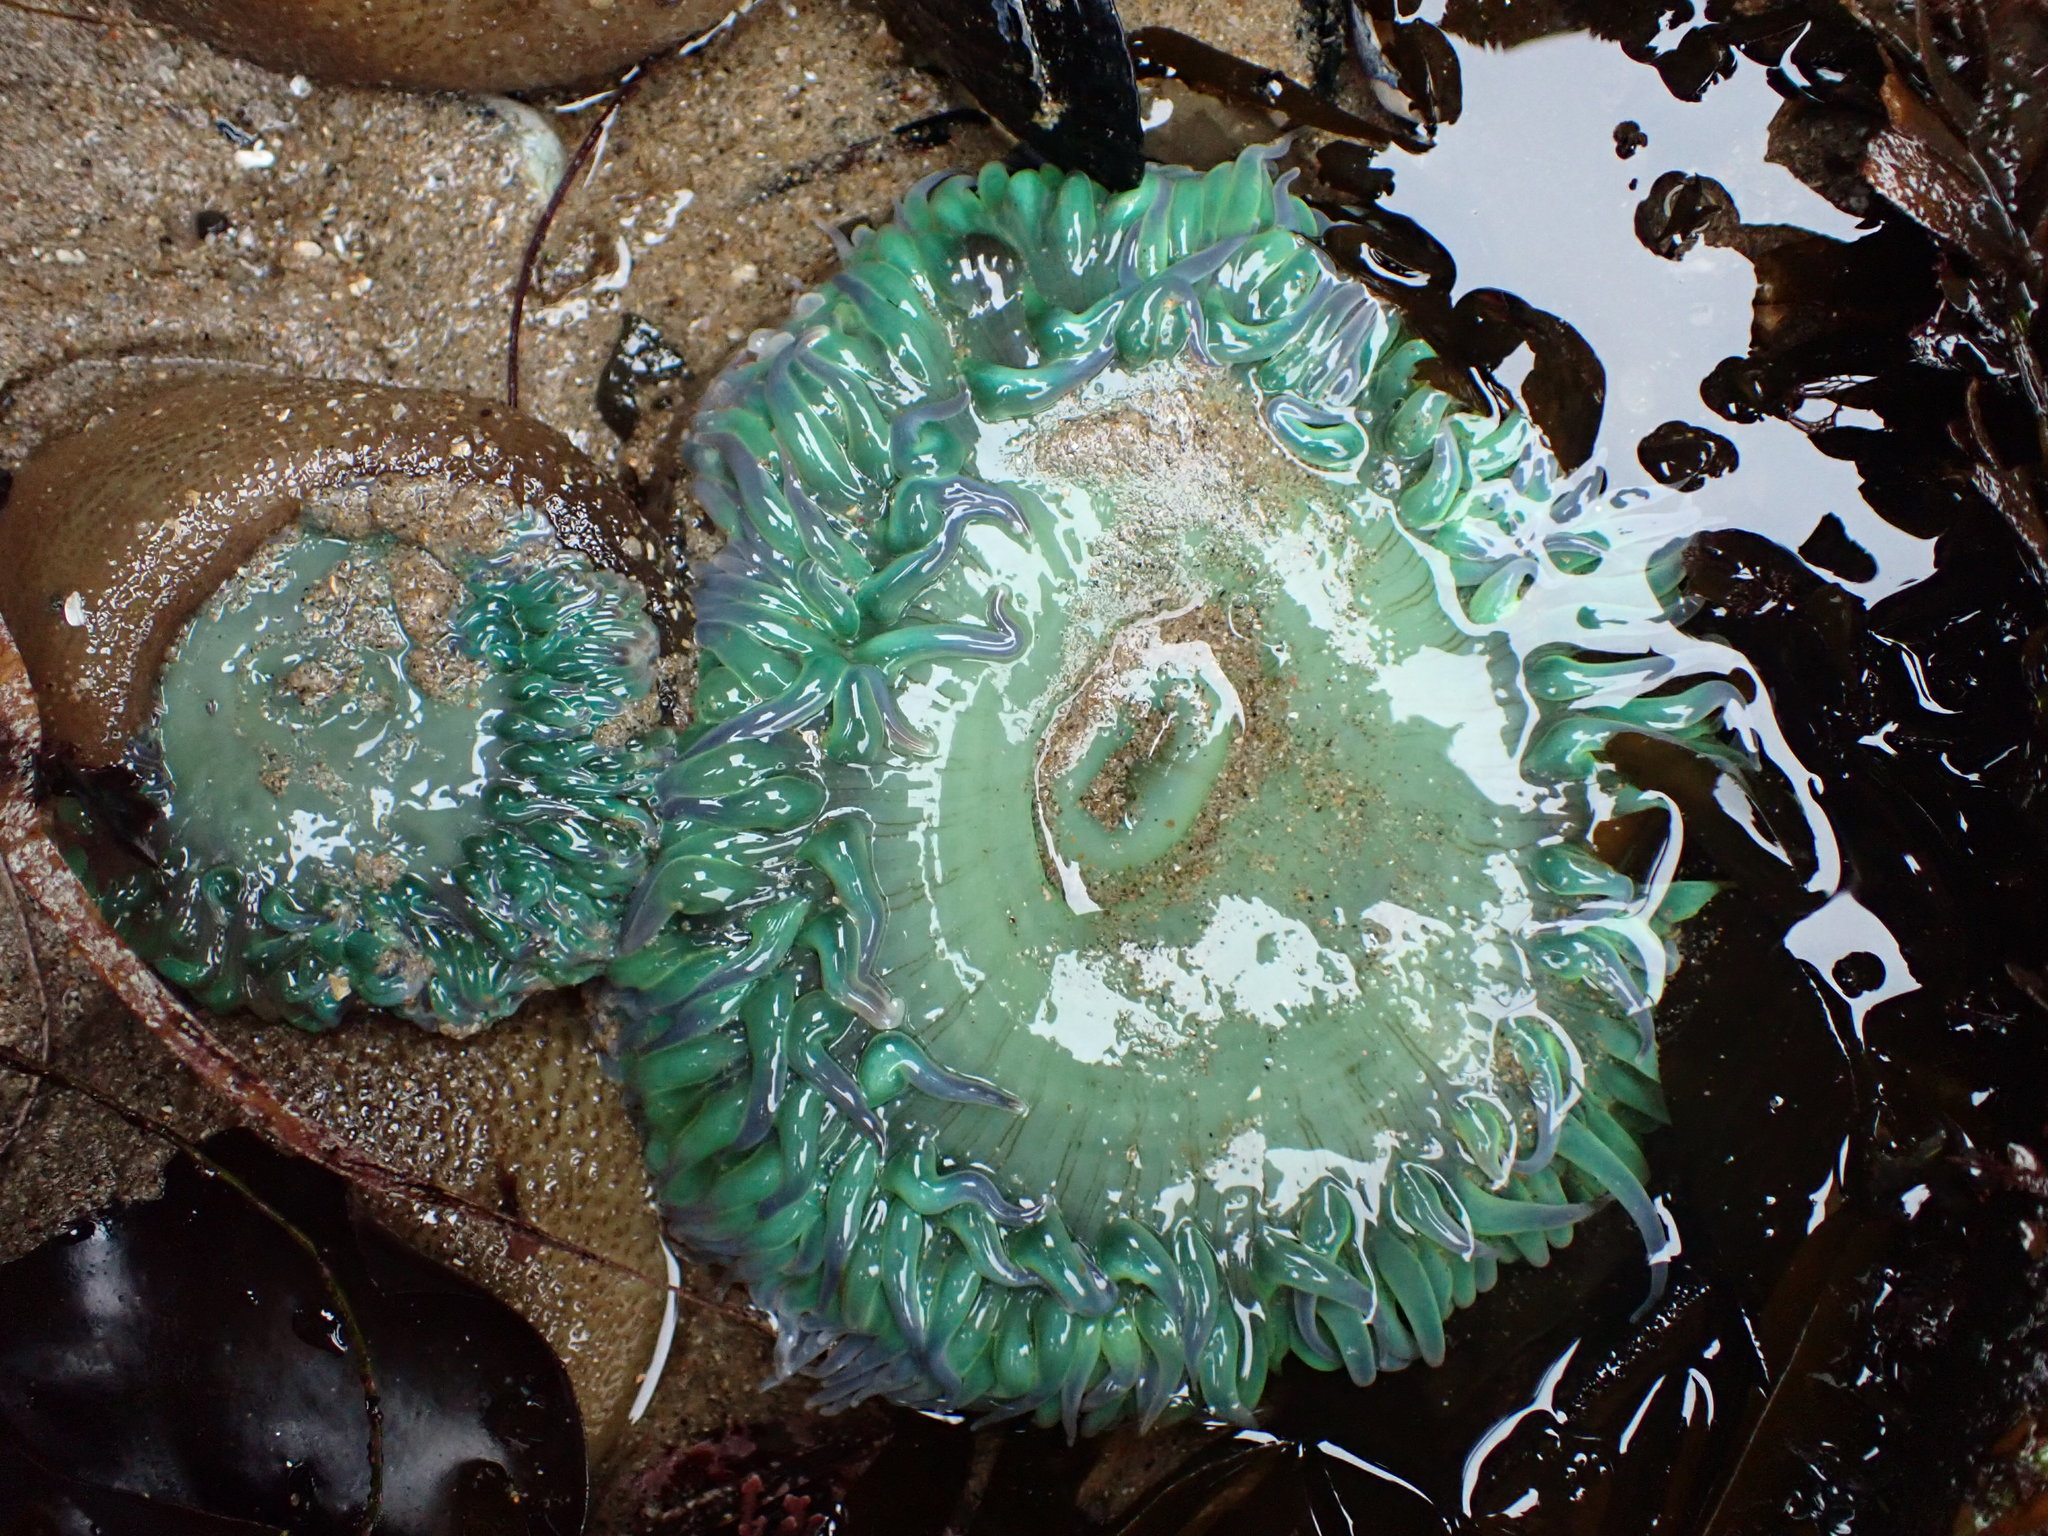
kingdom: Animalia
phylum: Cnidaria
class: Anthozoa
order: Actiniaria
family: Actiniidae
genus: Anthopleura
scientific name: Anthopleura xanthogrammica
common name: Giant green anemone
